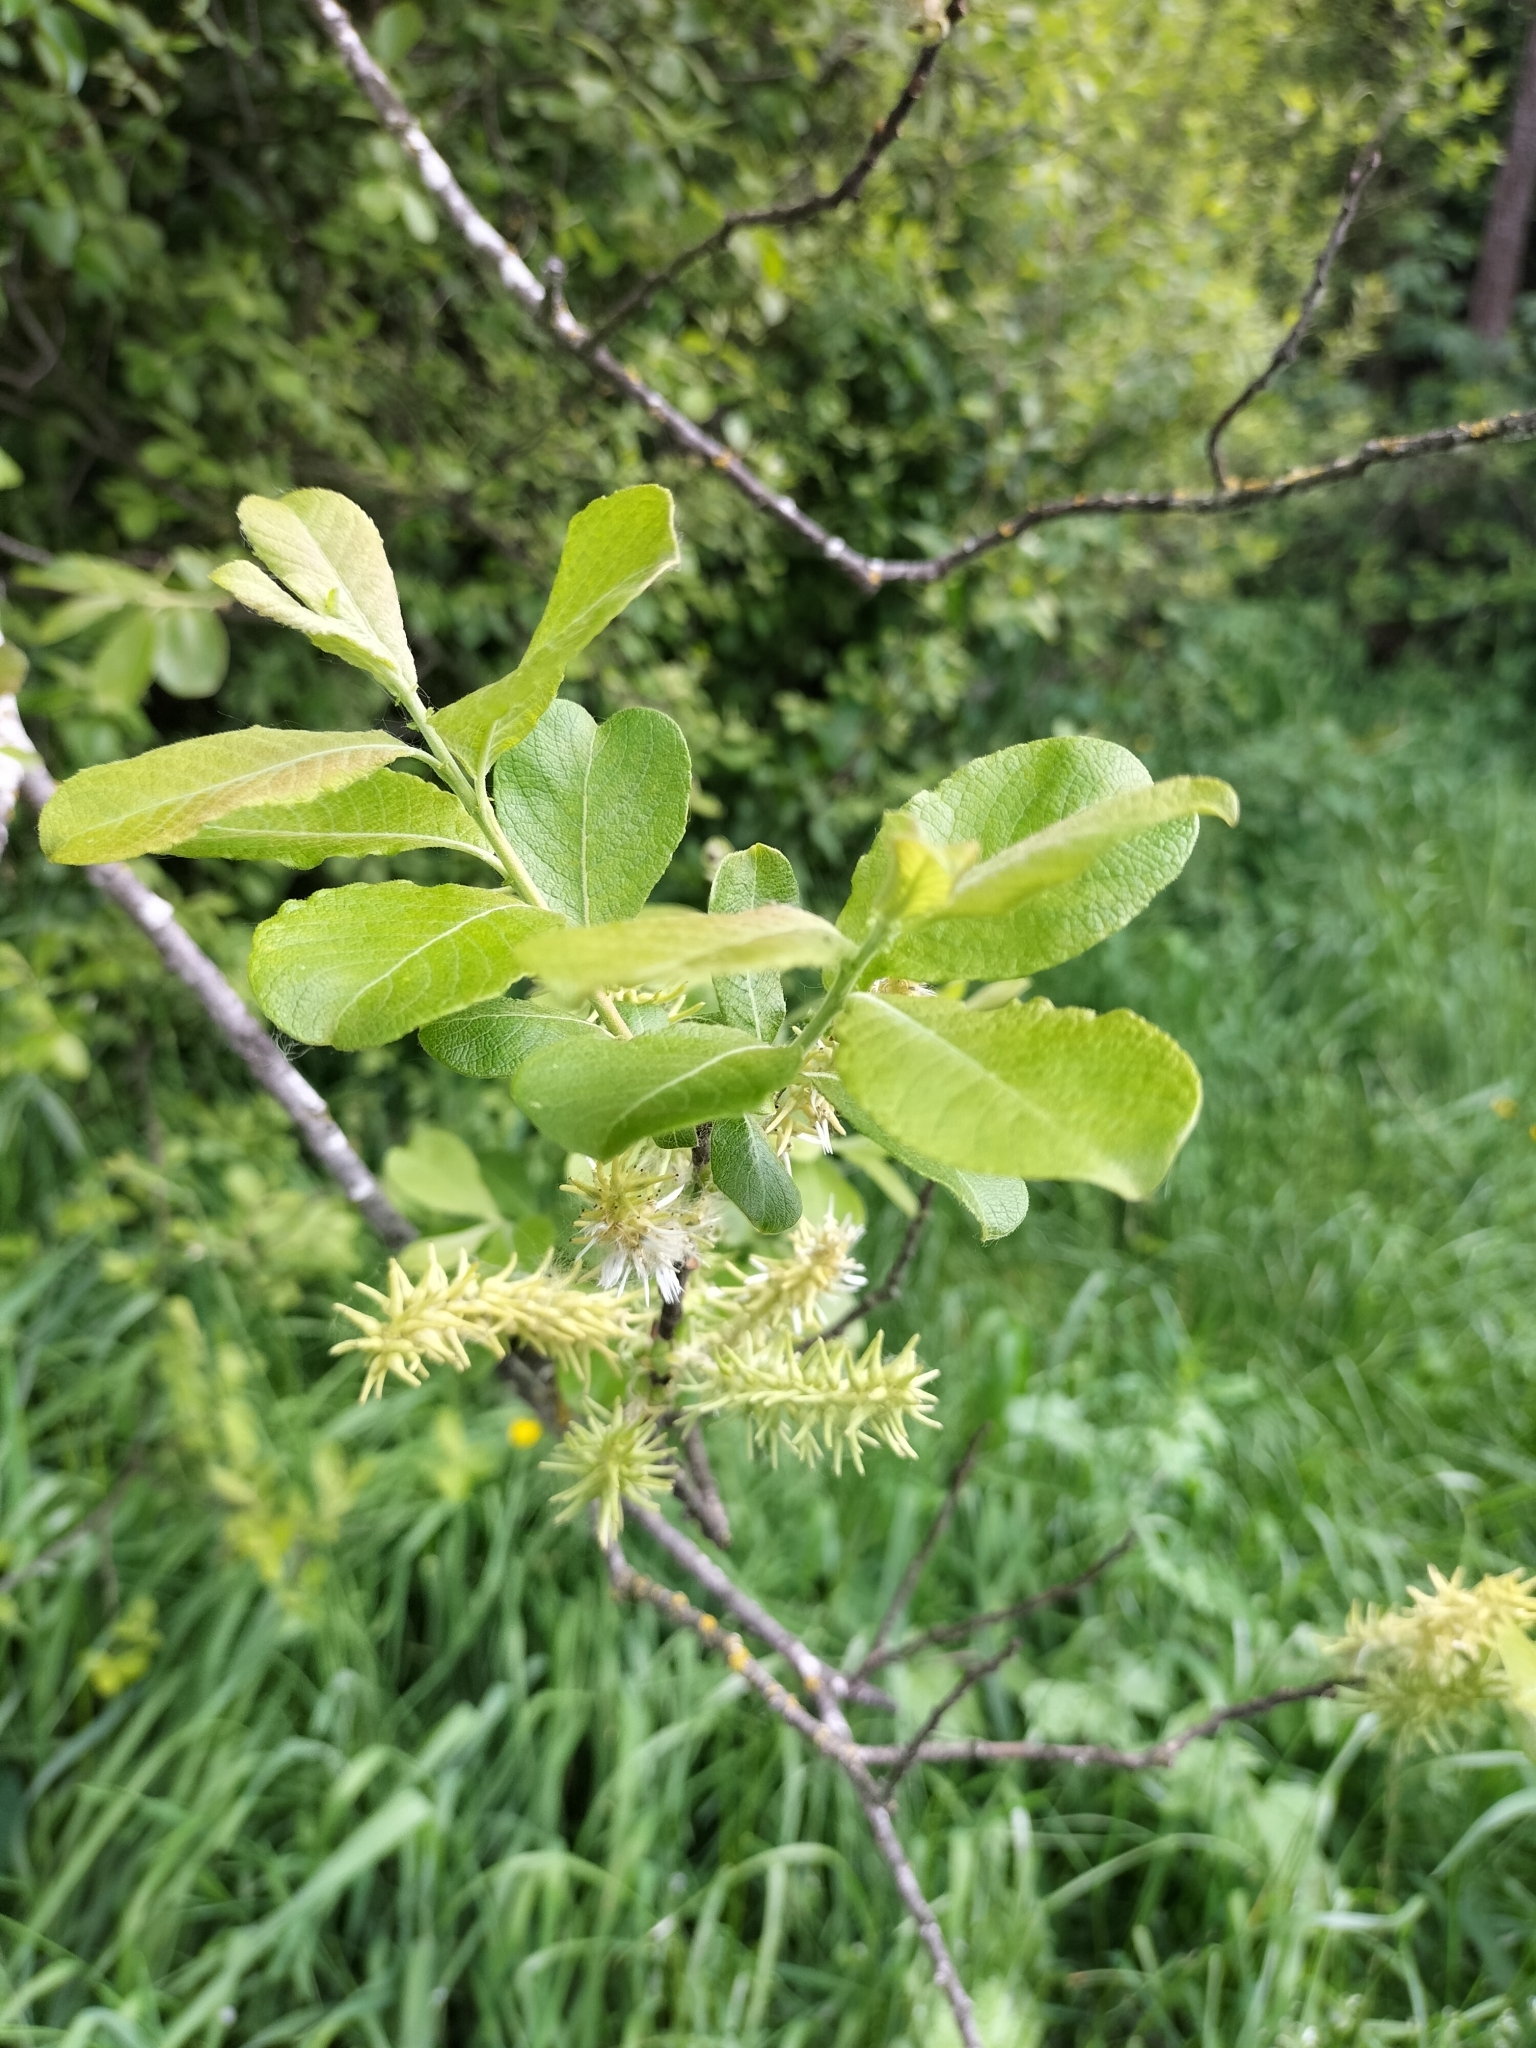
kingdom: Plantae
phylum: Tracheophyta
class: Magnoliopsida
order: Malpighiales
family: Salicaceae
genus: Salix
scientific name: Salix cinerea
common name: Common sallow
